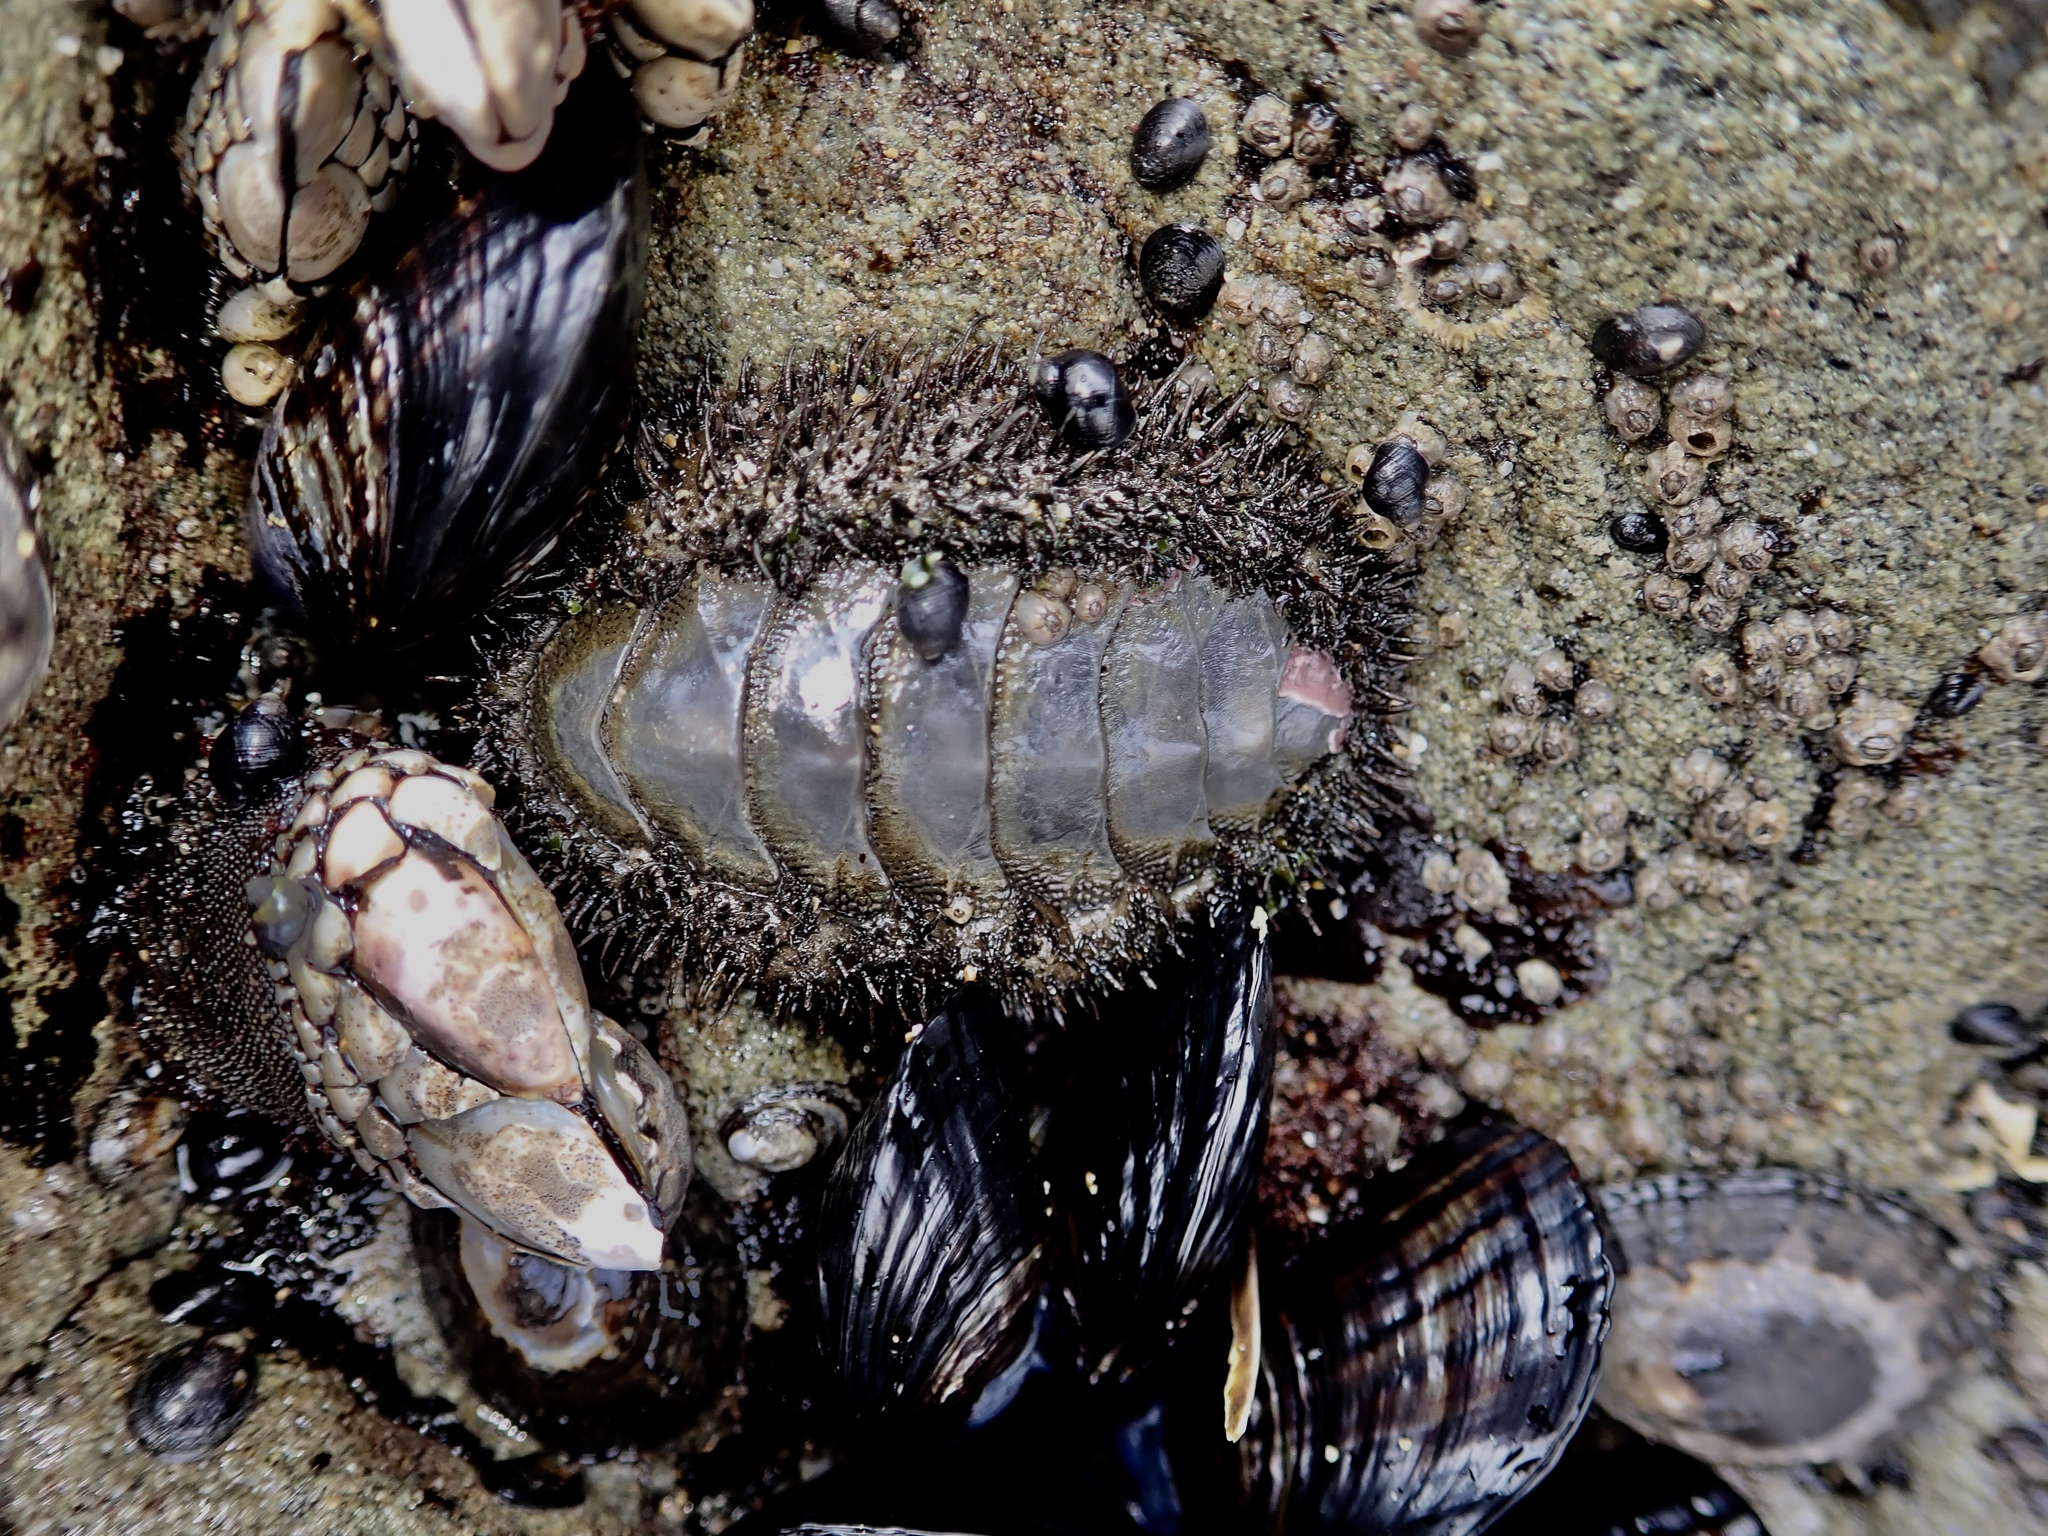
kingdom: Animalia
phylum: Mollusca
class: Polyplacophora
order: Chitonida
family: Mopaliidae
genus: Mopalia
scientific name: Mopalia muscosa
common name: Mossy chiton
